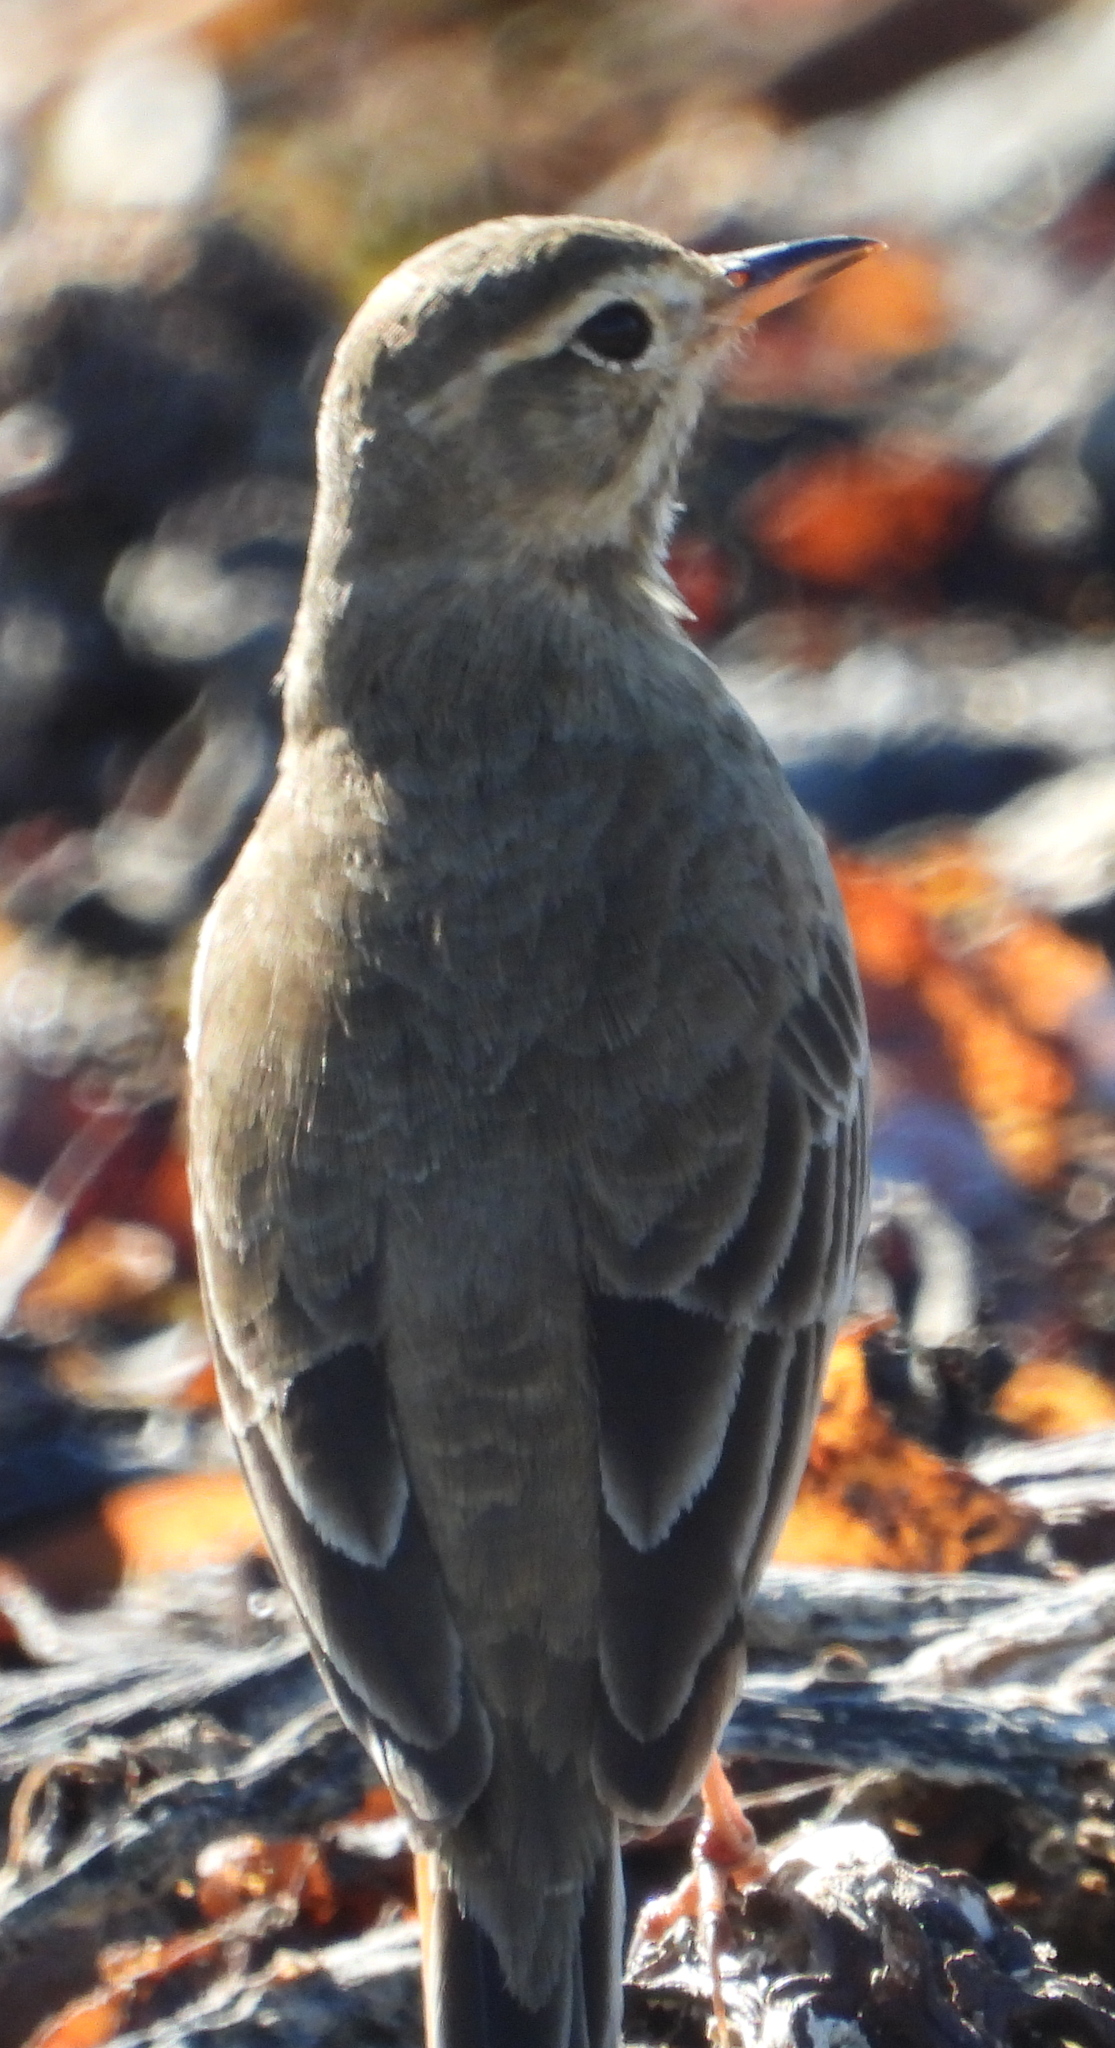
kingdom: Animalia
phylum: Chordata
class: Aves
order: Passeriformes
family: Motacillidae
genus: Anthus
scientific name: Anthus leucophrys
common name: Plain-backed pipit
